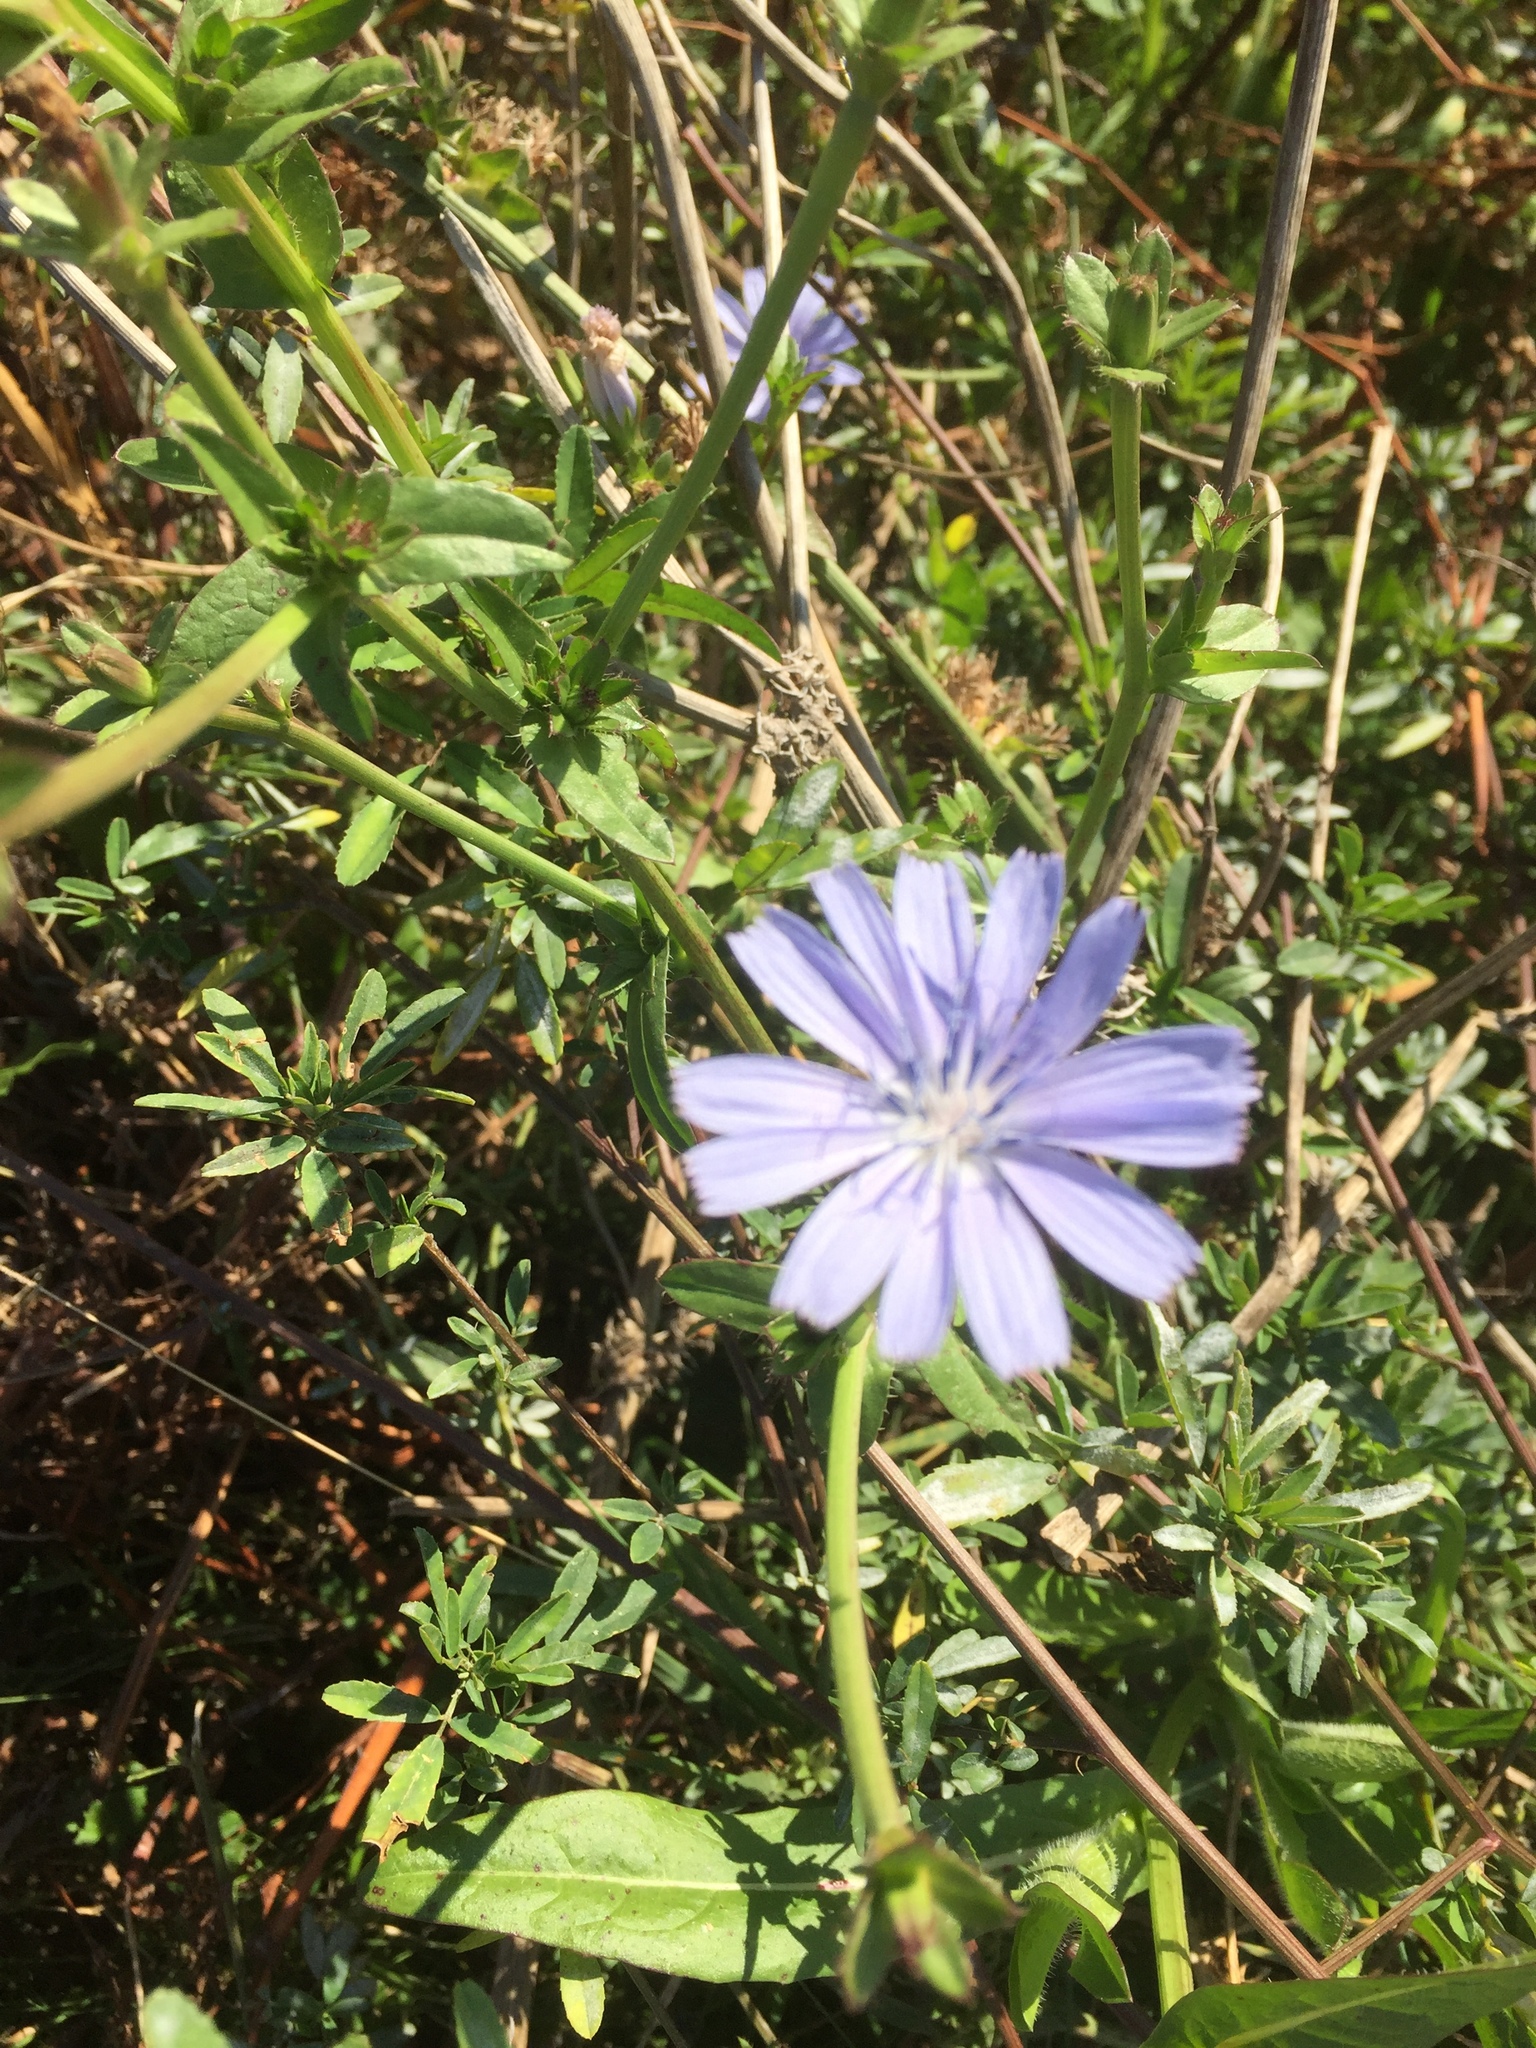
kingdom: Plantae
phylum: Tracheophyta
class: Magnoliopsida
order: Asterales
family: Asteraceae
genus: Cichorium
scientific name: Cichorium intybus
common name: Chicory
